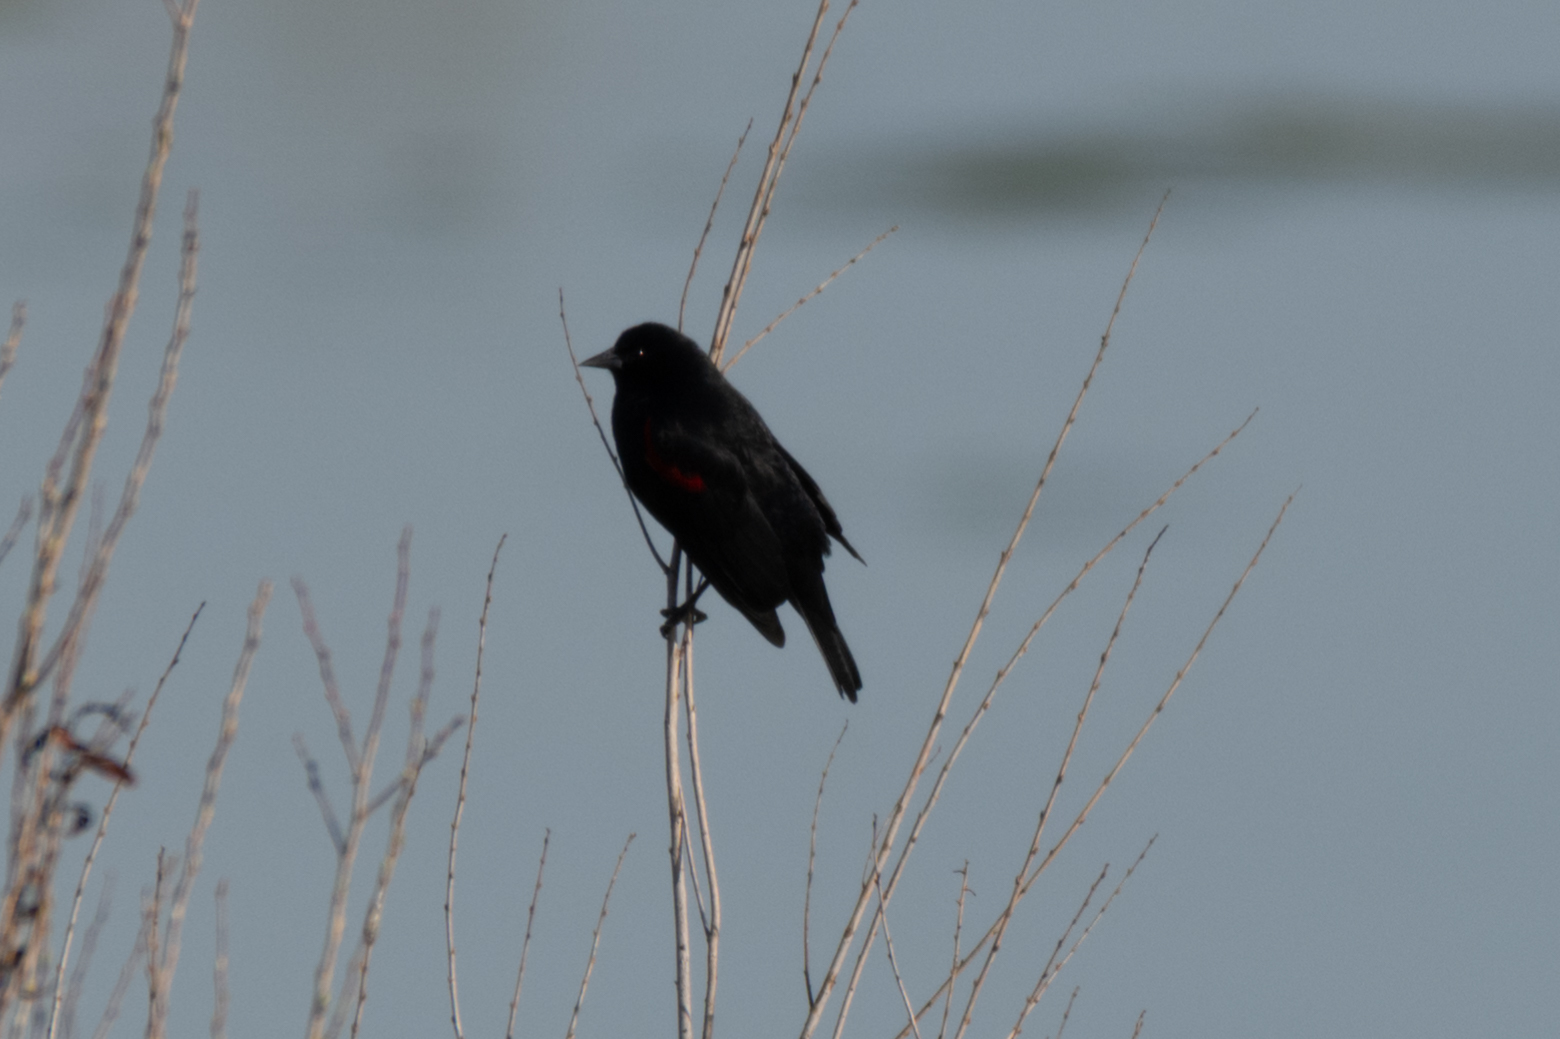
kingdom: Animalia
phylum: Chordata
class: Aves
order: Passeriformes
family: Icteridae
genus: Agelaius
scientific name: Agelaius phoeniceus
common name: Red-winged blackbird
